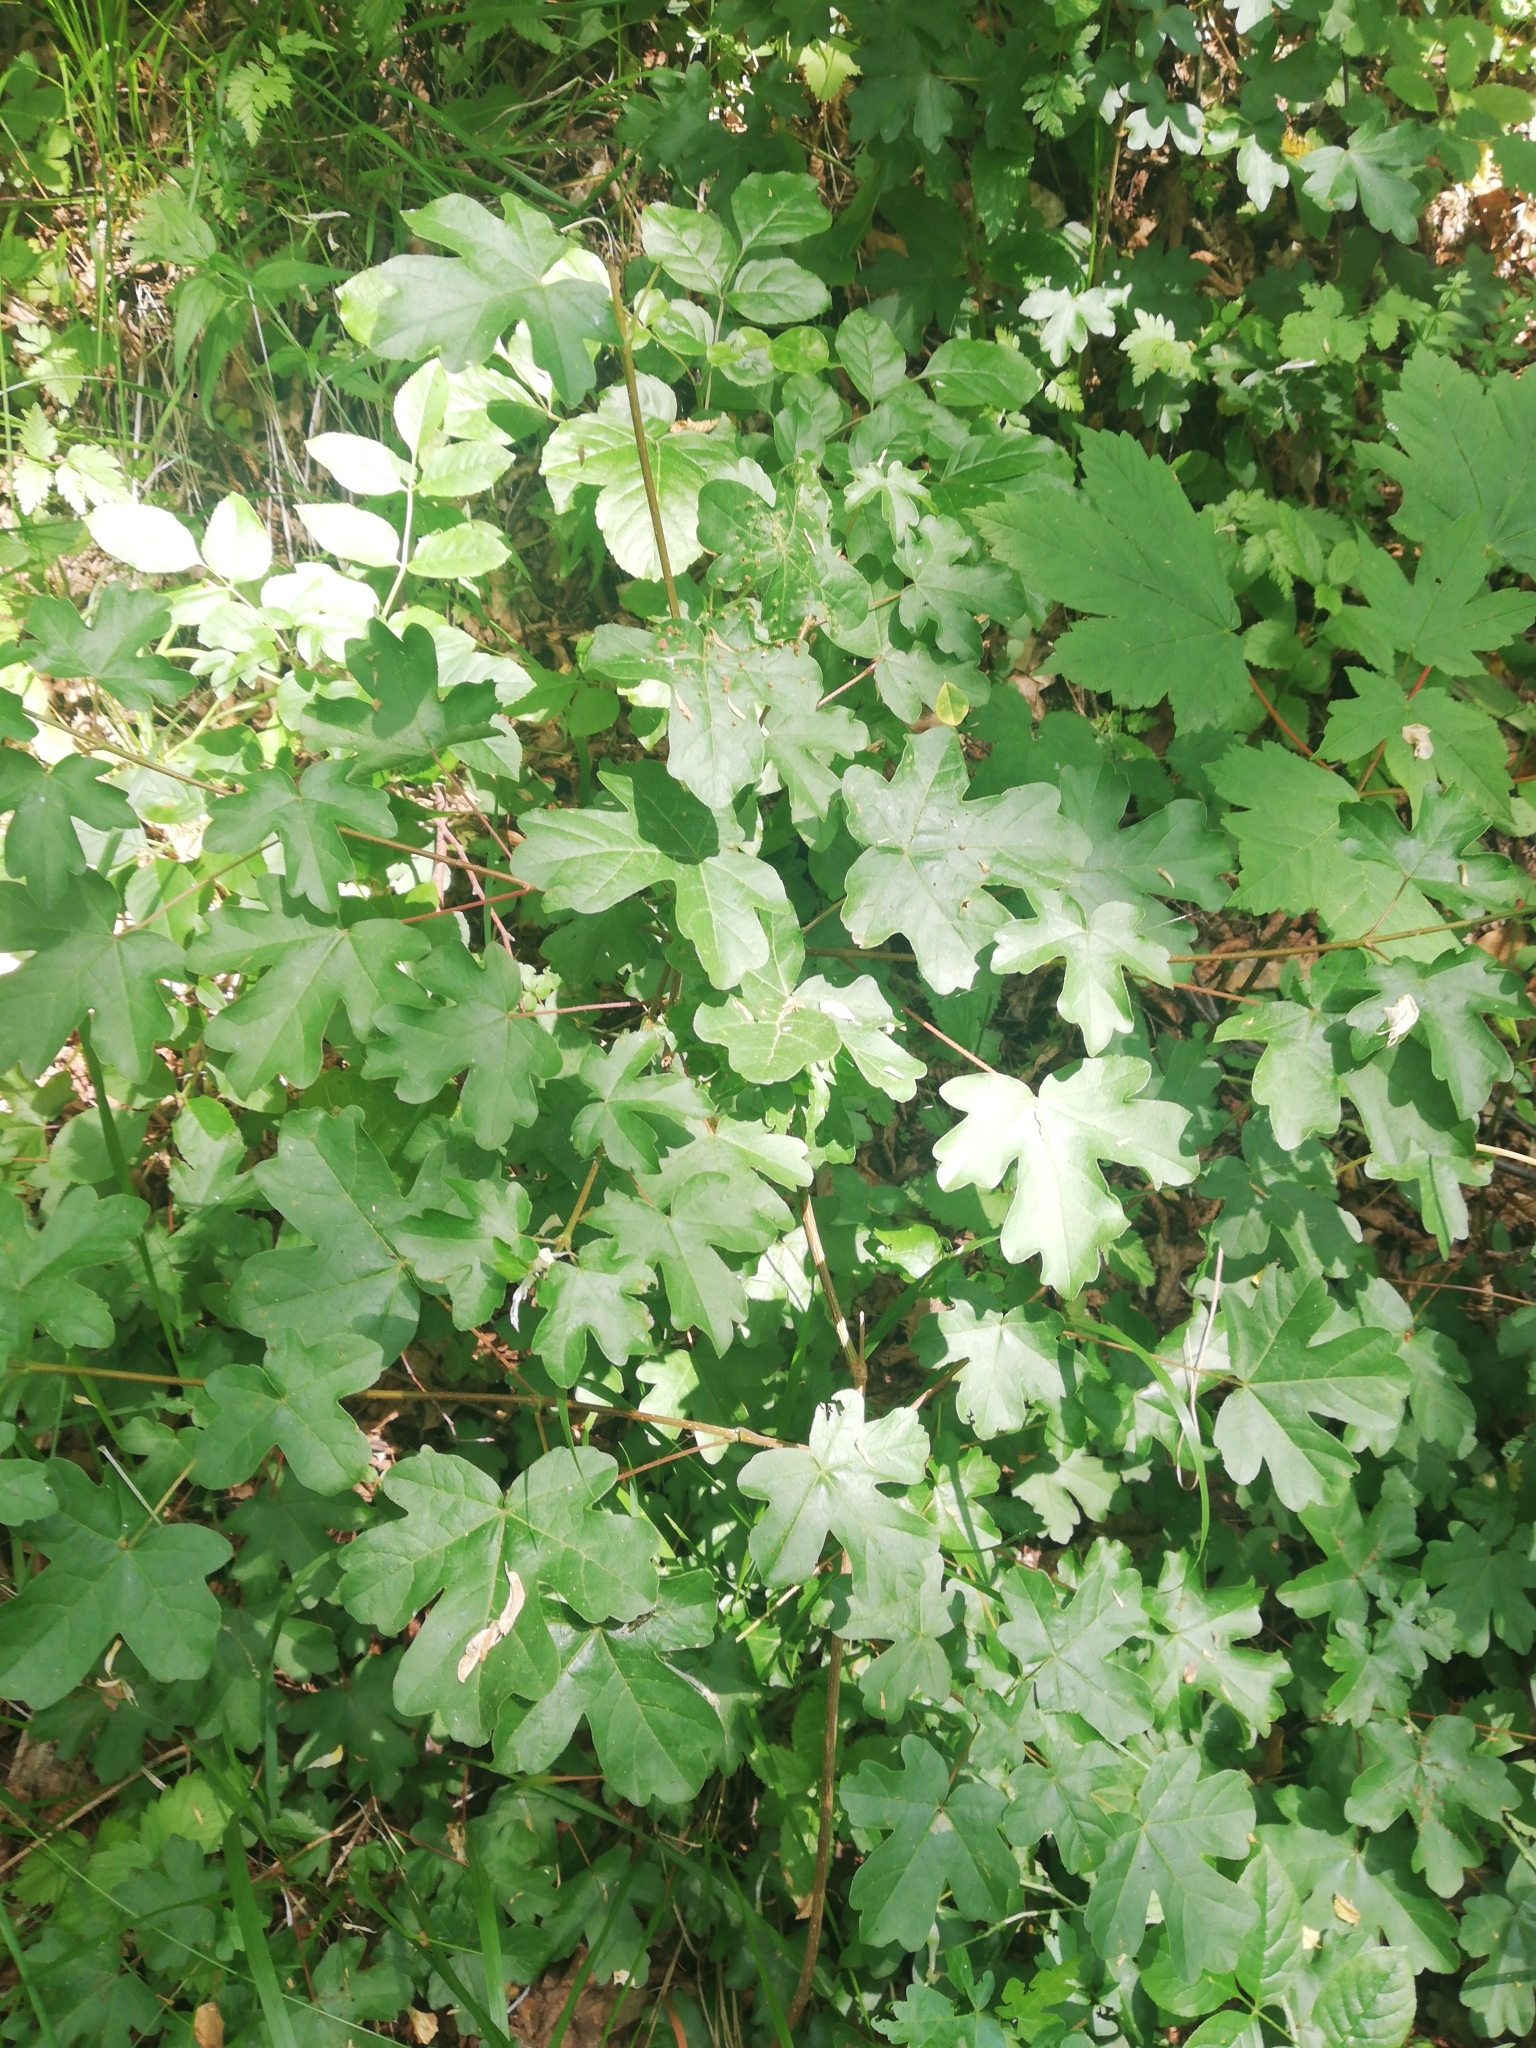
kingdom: Plantae
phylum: Tracheophyta
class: Magnoliopsida
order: Sapindales
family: Sapindaceae
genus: Acer
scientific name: Acer campestre
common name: Field maple
